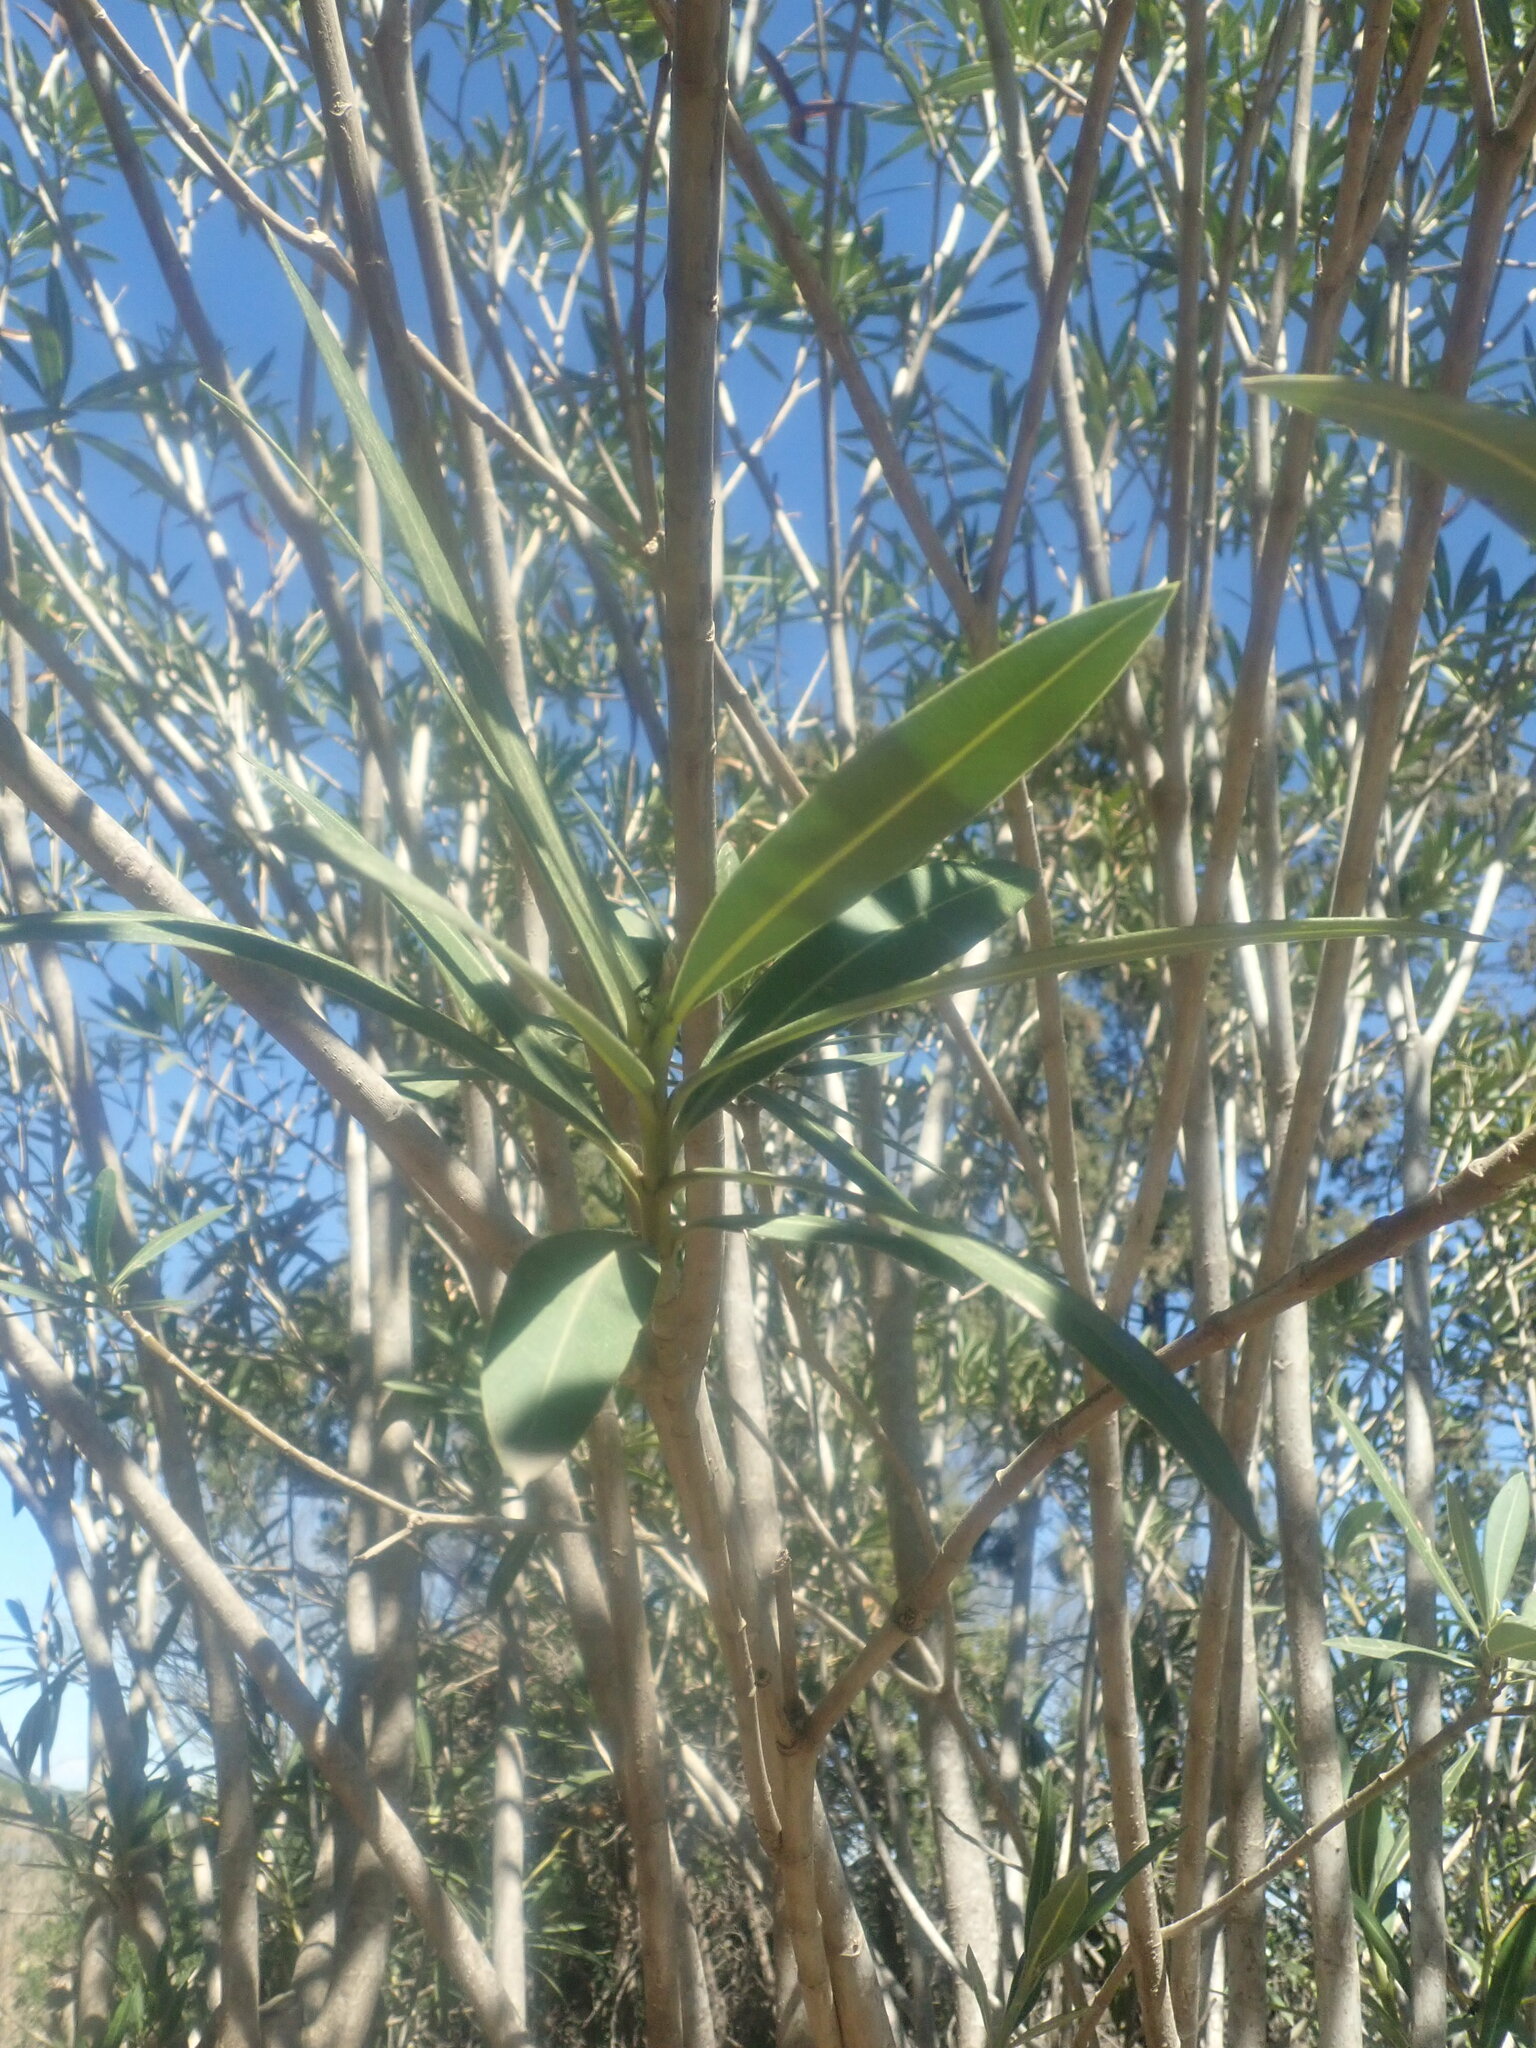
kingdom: Plantae
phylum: Tracheophyta
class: Magnoliopsida
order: Gentianales
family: Apocynaceae
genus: Nerium
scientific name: Nerium oleander
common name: Oleander
